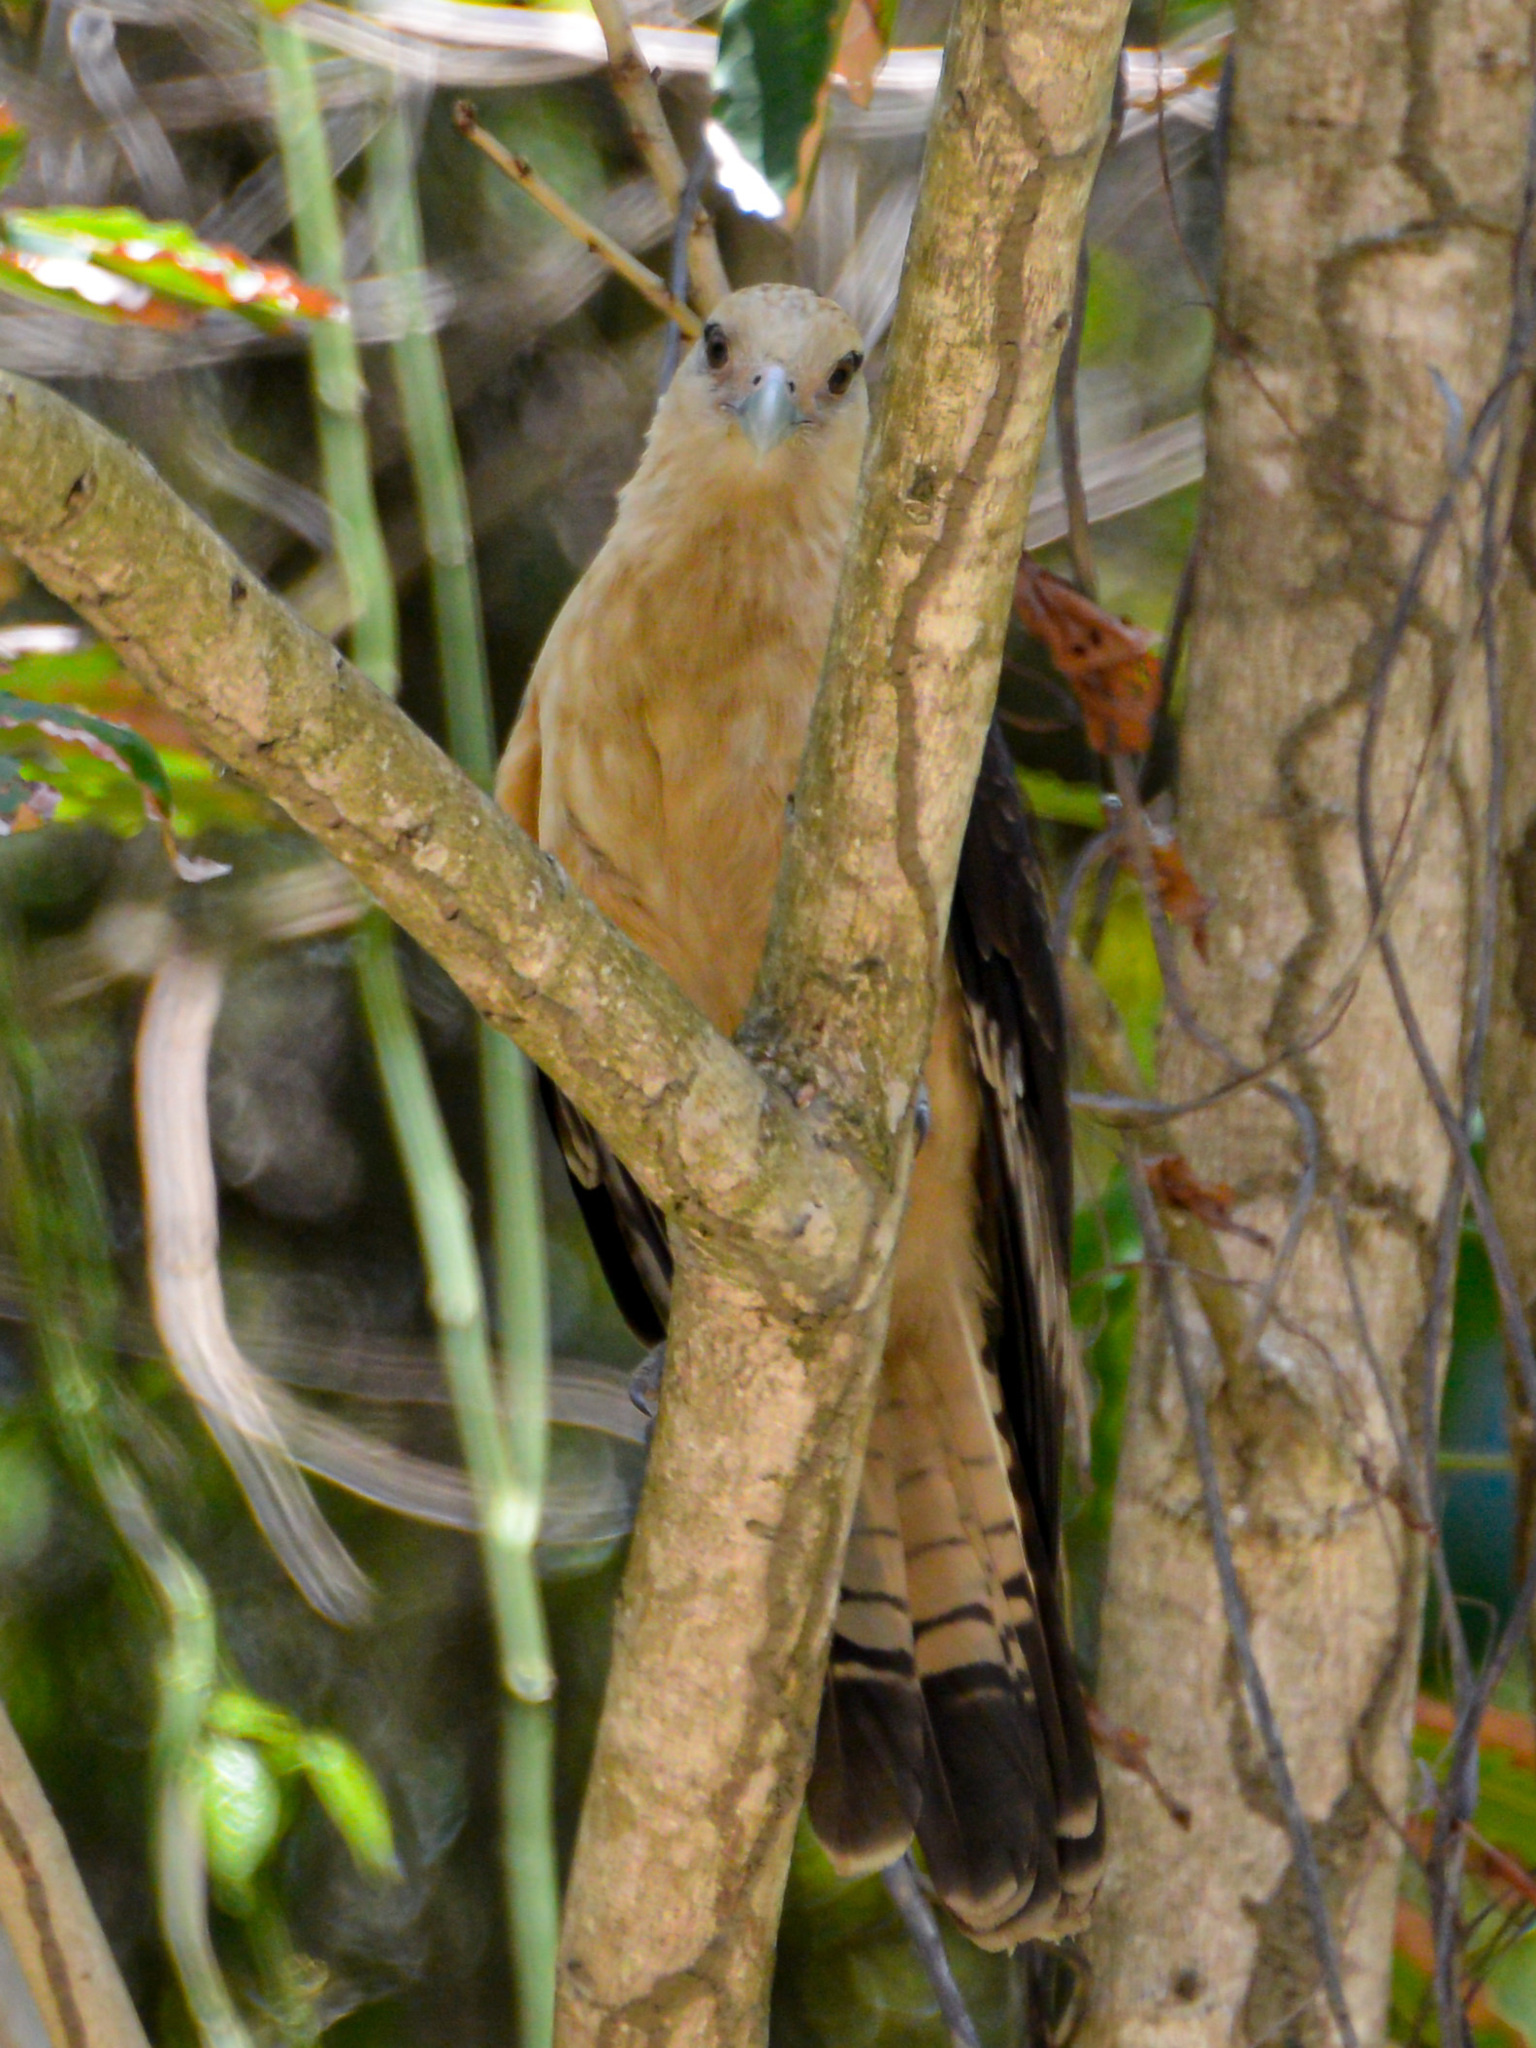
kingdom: Animalia
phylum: Chordata
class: Aves
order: Falconiformes
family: Falconidae
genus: Daptrius
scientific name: Daptrius
